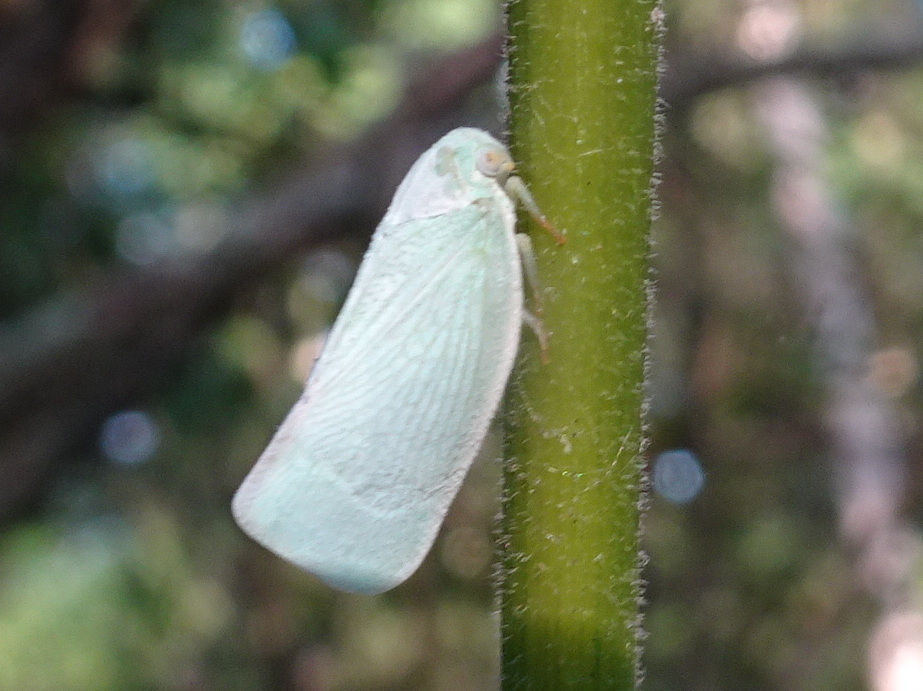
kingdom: Animalia
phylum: Arthropoda
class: Insecta
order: Hemiptera
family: Flatidae
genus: Flatormenis
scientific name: Flatormenis proxima
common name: Northern flatid planthopper
